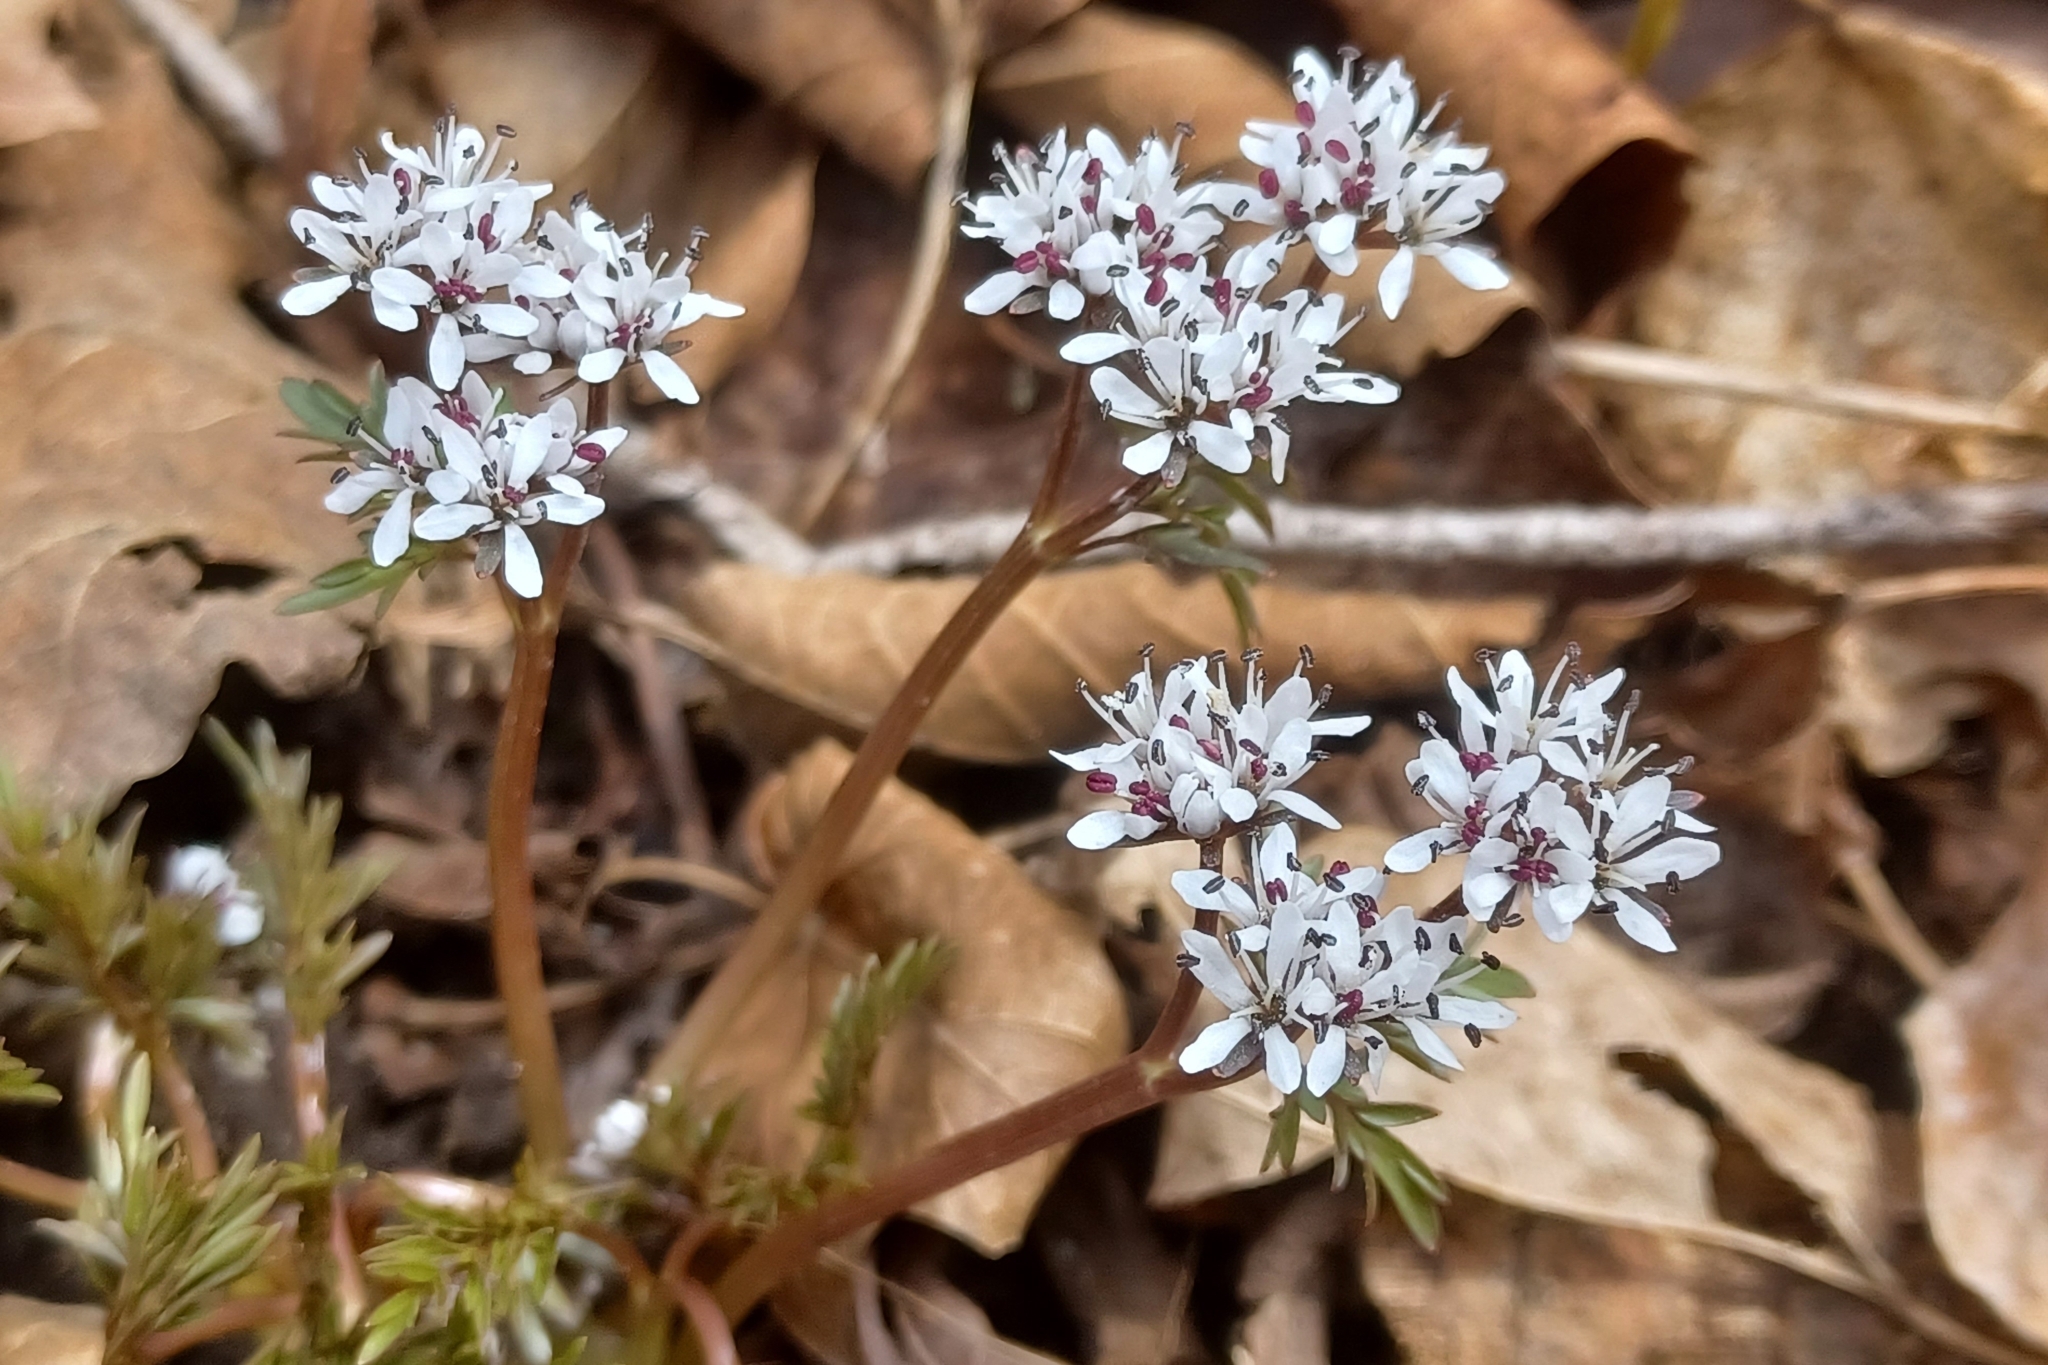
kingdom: Plantae
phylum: Tracheophyta
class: Magnoliopsida
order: Apiales
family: Apiaceae
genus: Erigenia
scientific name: Erigenia bulbosa
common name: Pepper-and-salt
